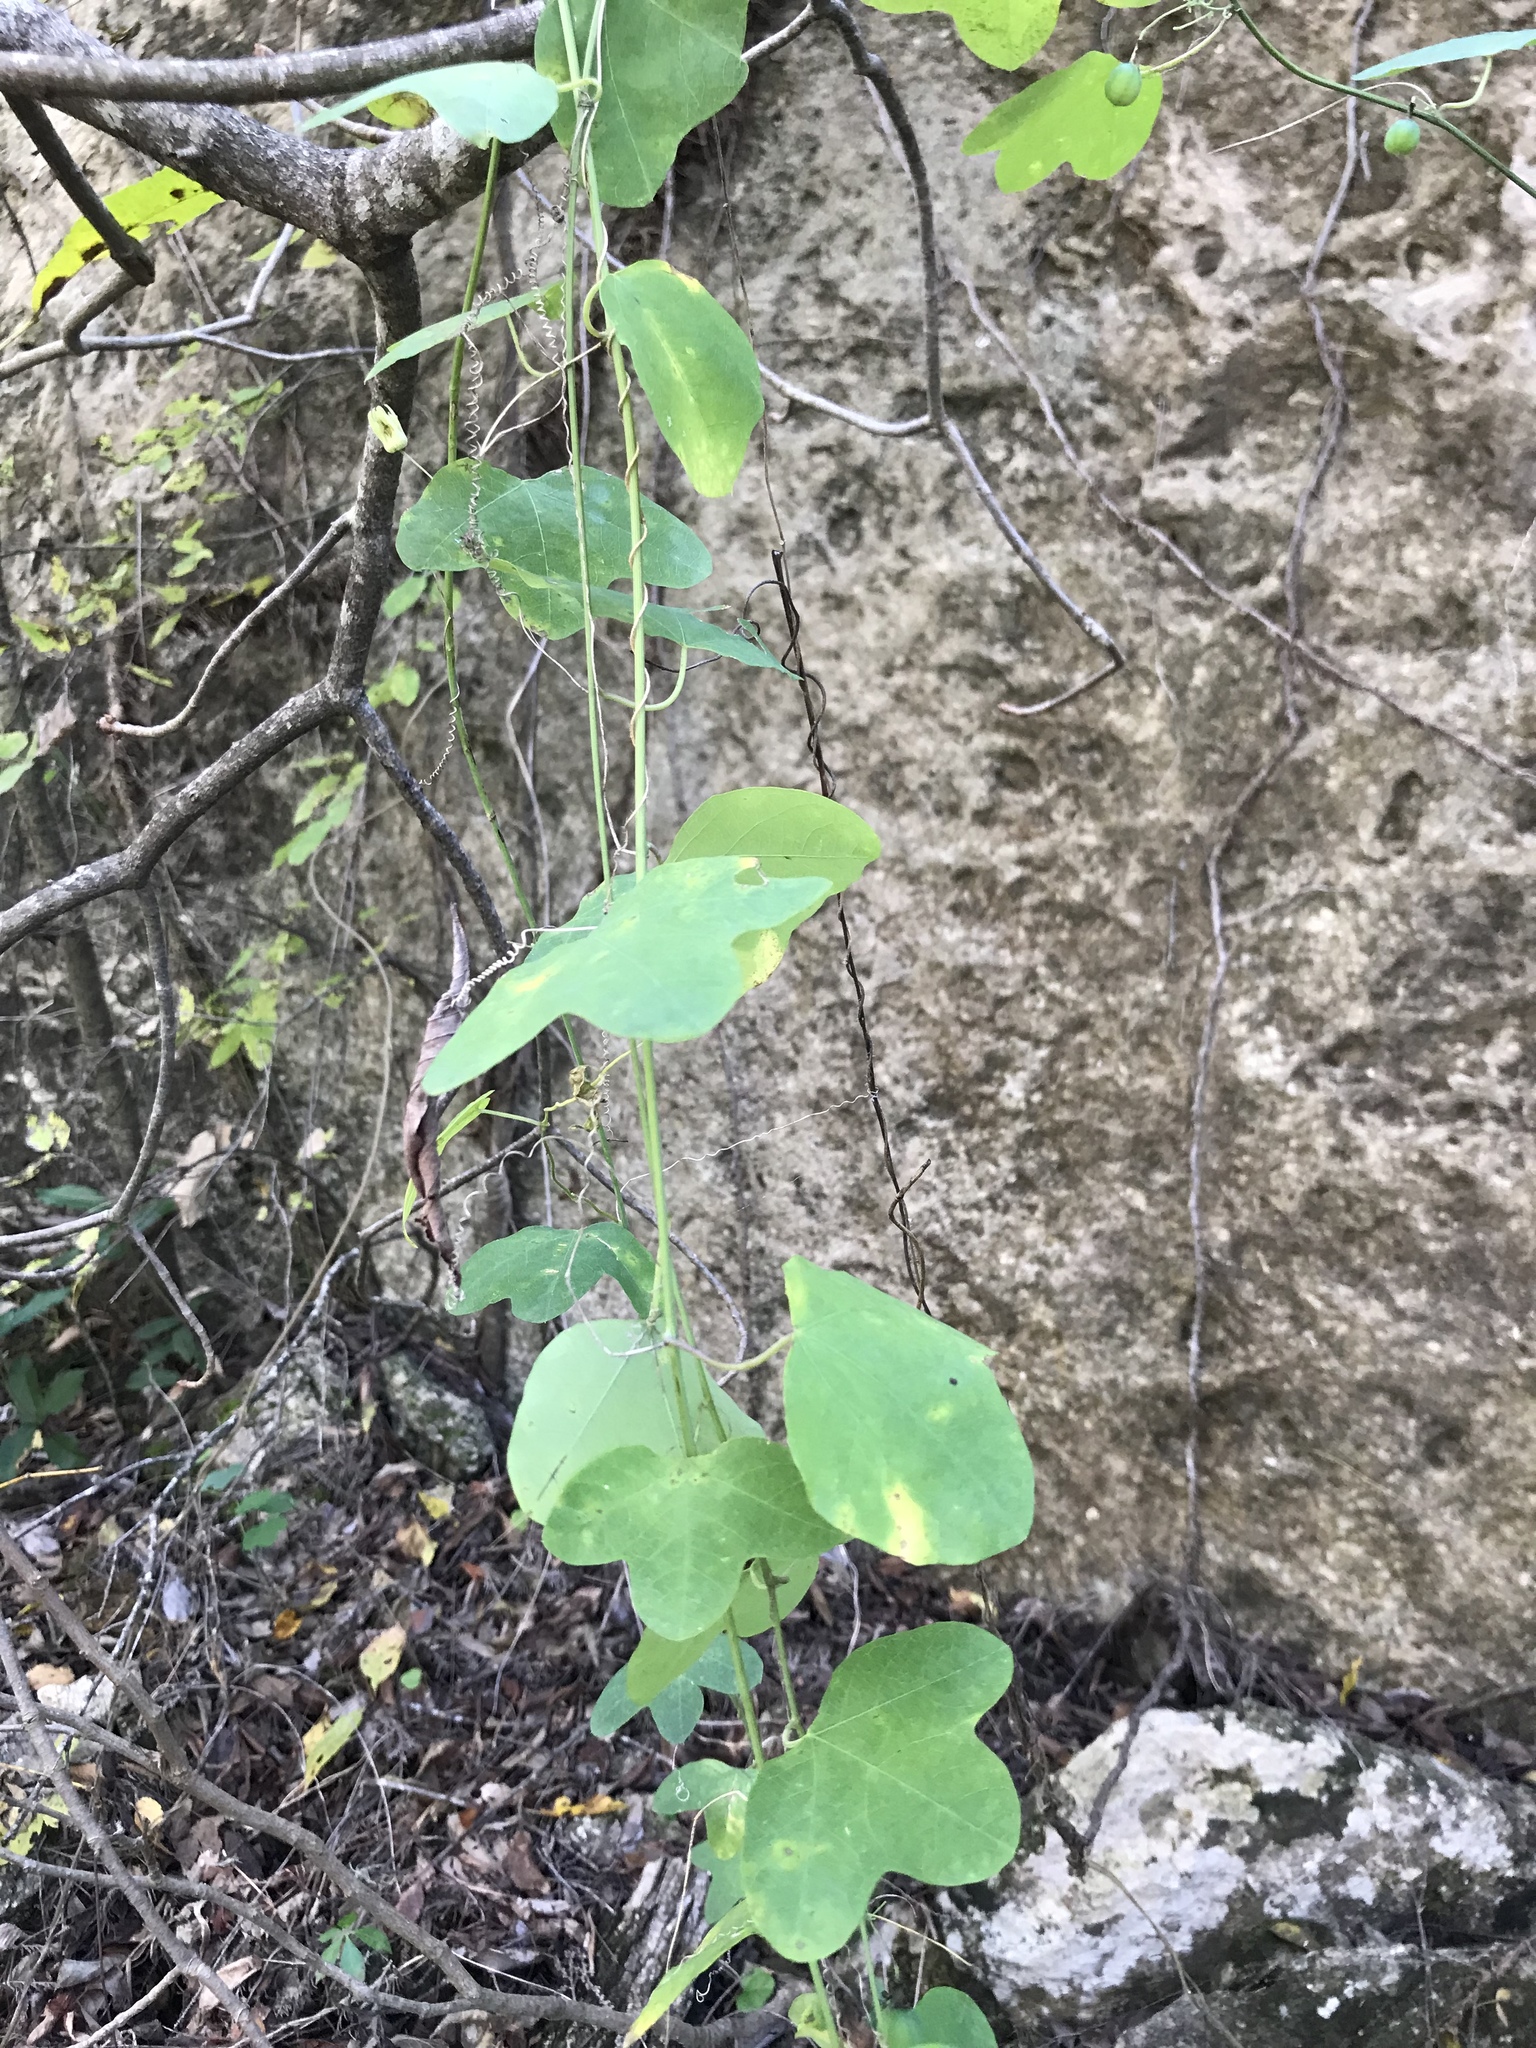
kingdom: Plantae
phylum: Tracheophyta
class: Magnoliopsida
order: Malpighiales
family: Passifloraceae
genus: Passiflora
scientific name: Passiflora lutea
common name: Yellow passionflower
